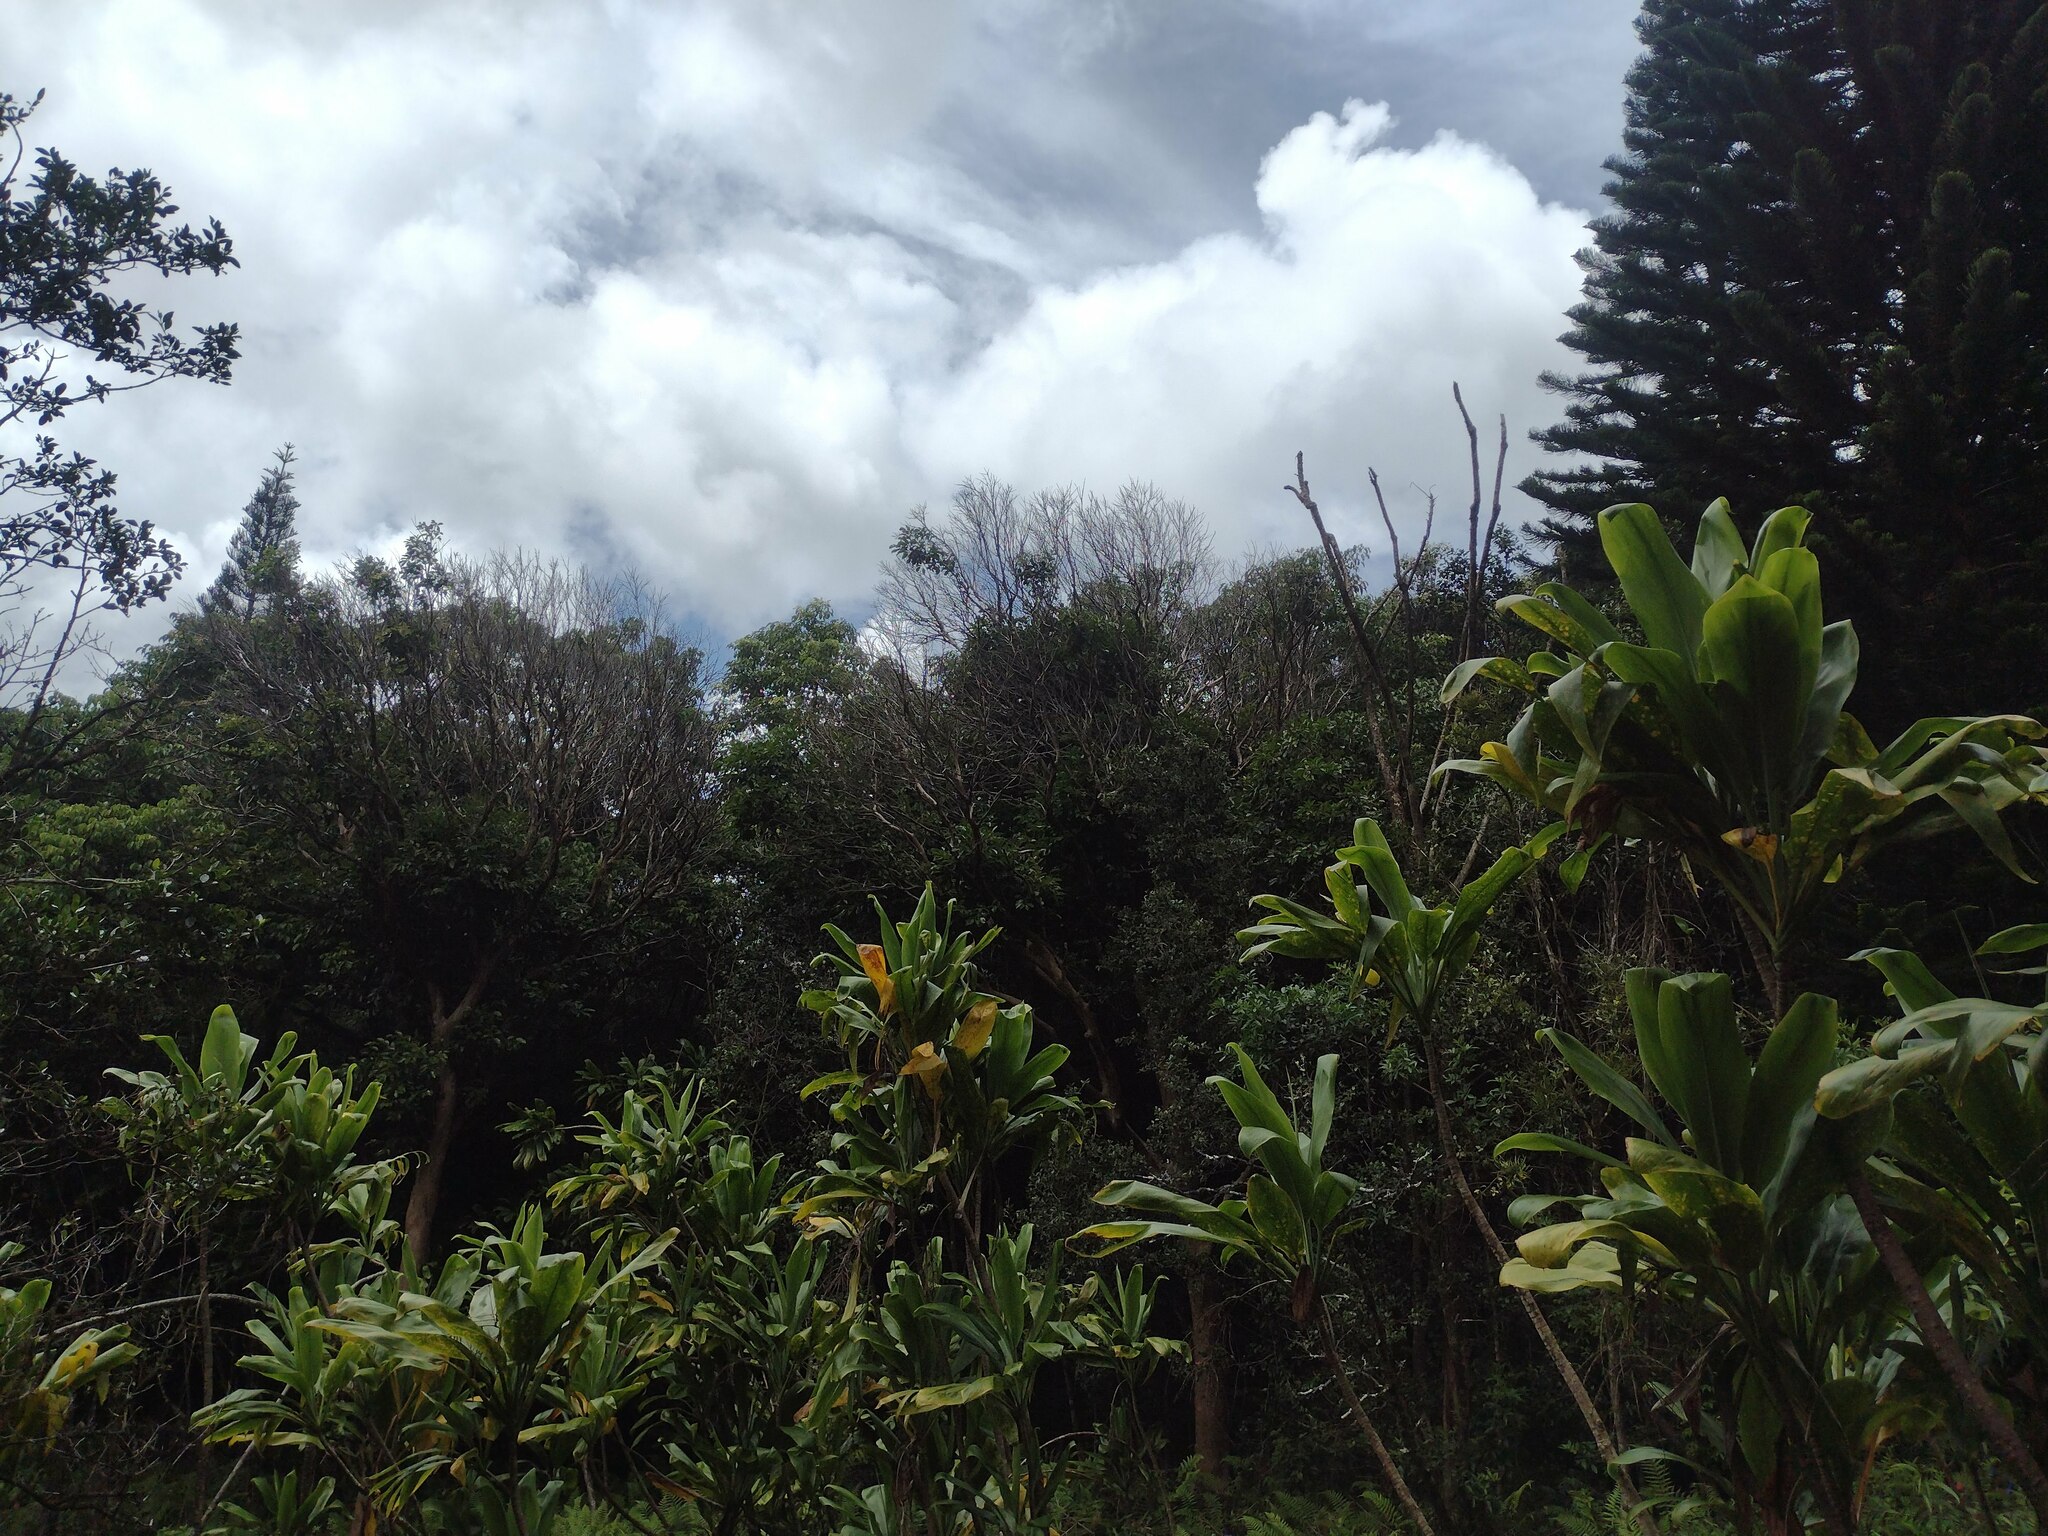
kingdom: Plantae
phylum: Tracheophyta
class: Magnoliopsida
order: Myrtales
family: Myrtaceae
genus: Psidium
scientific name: Psidium cattleianum
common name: Strawberry guava
